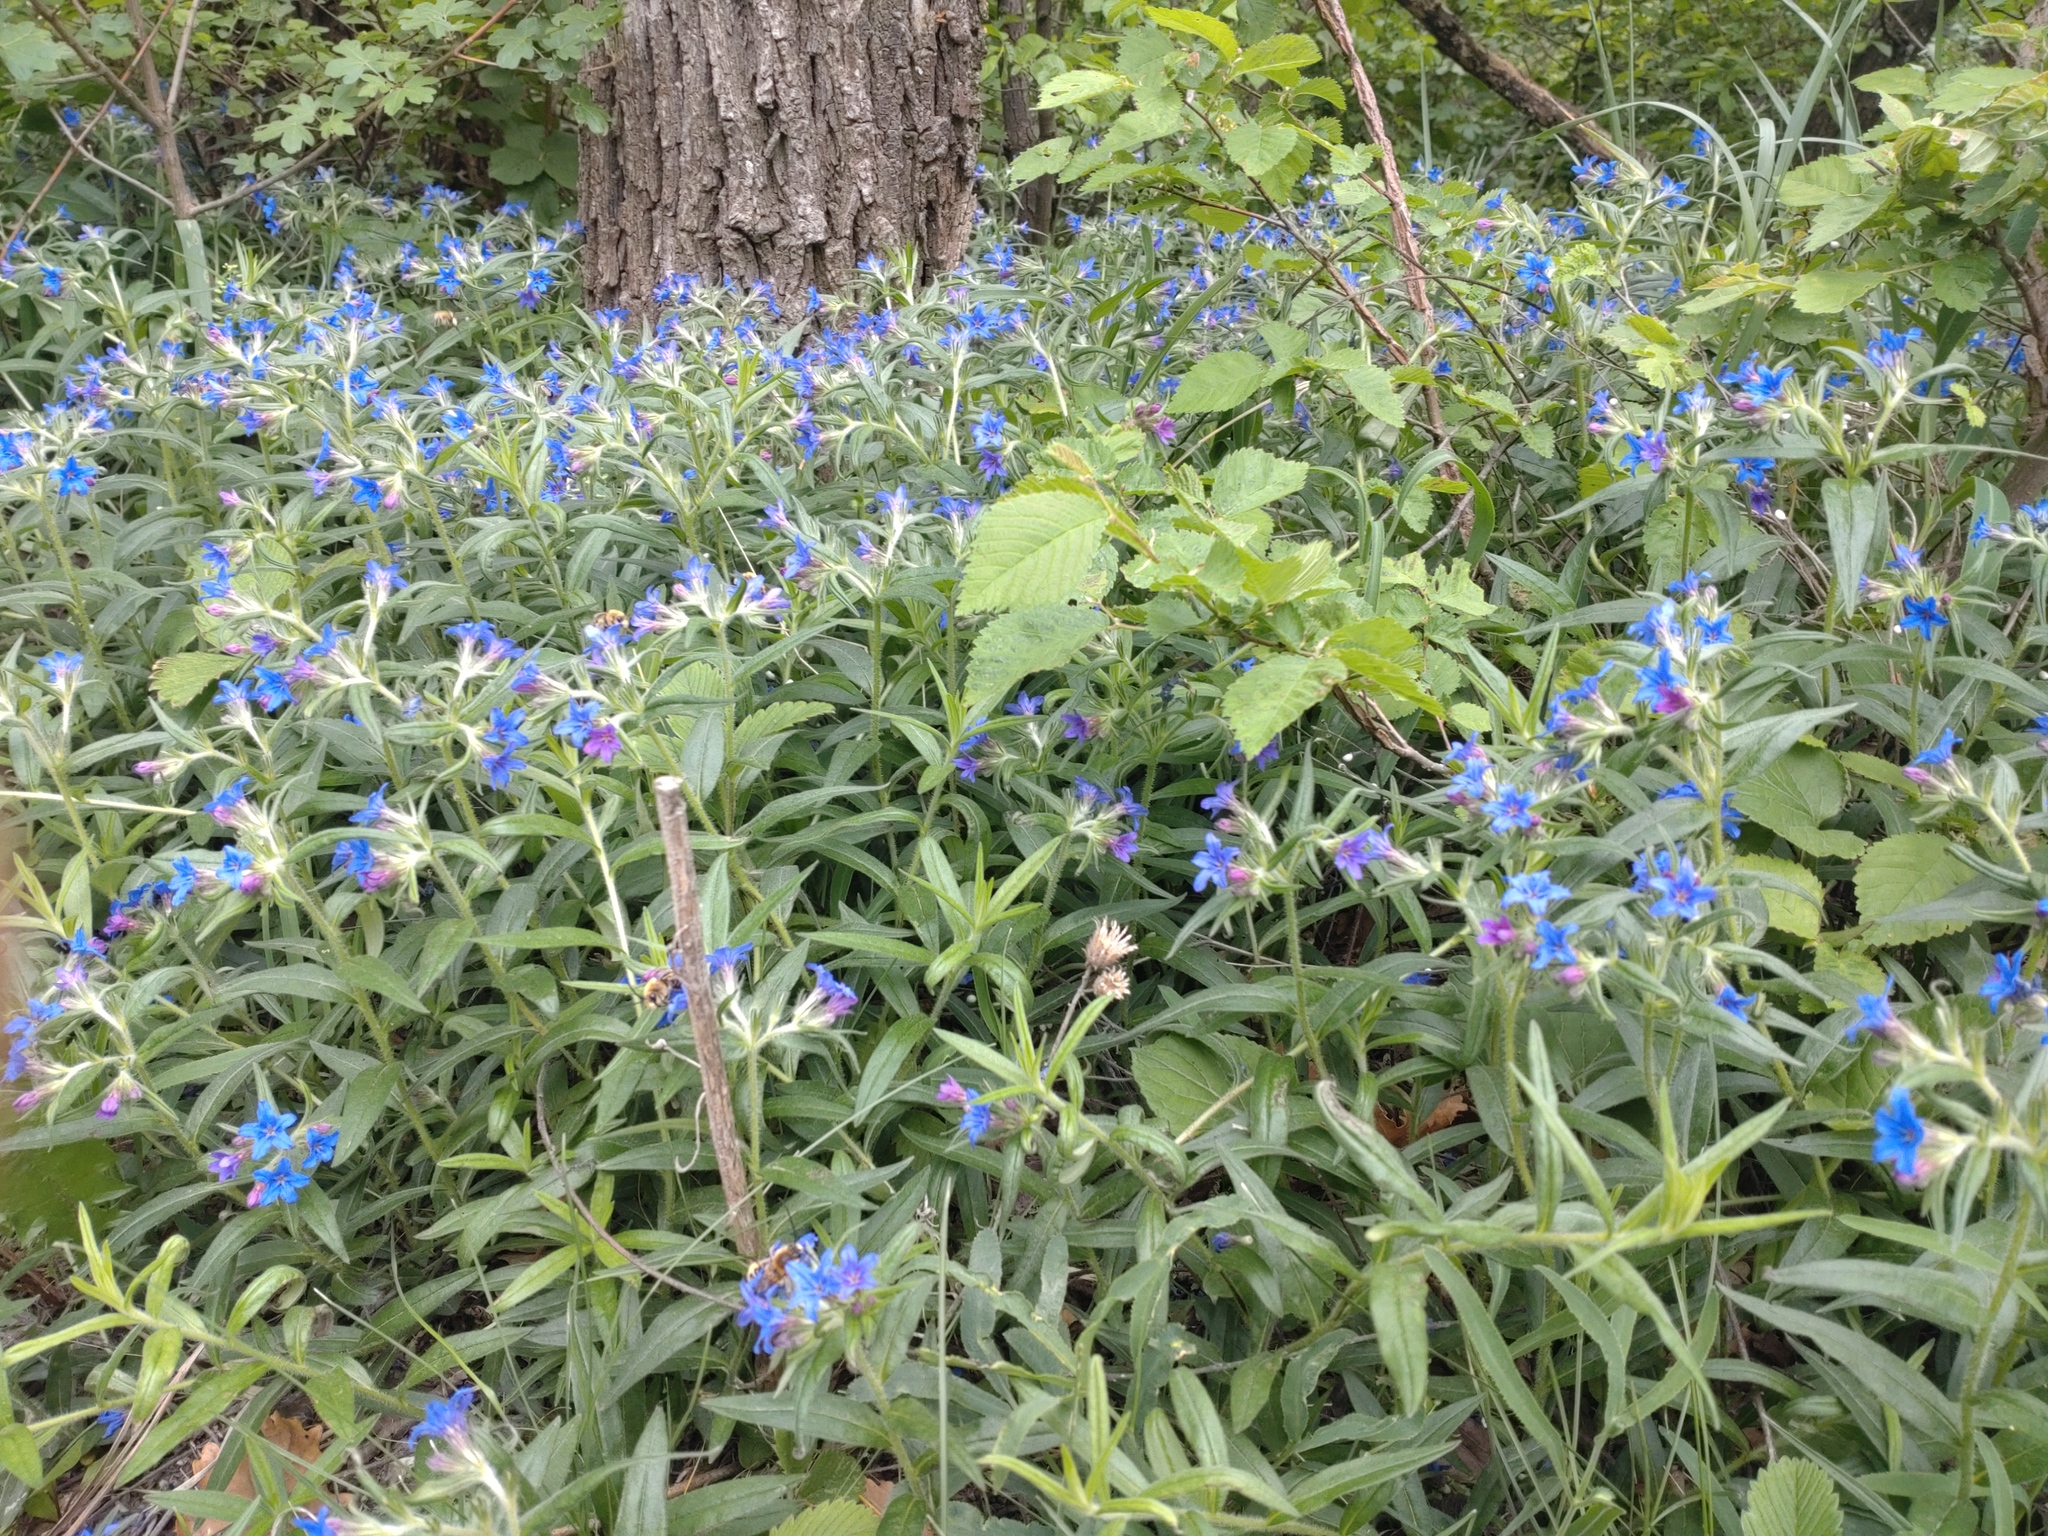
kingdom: Animalia
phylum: Arthropoda
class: Insecta
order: Hymenoptera
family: Apidae
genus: Eucera
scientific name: Eucera nigrescens
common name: Tuberculate long-horned bee
